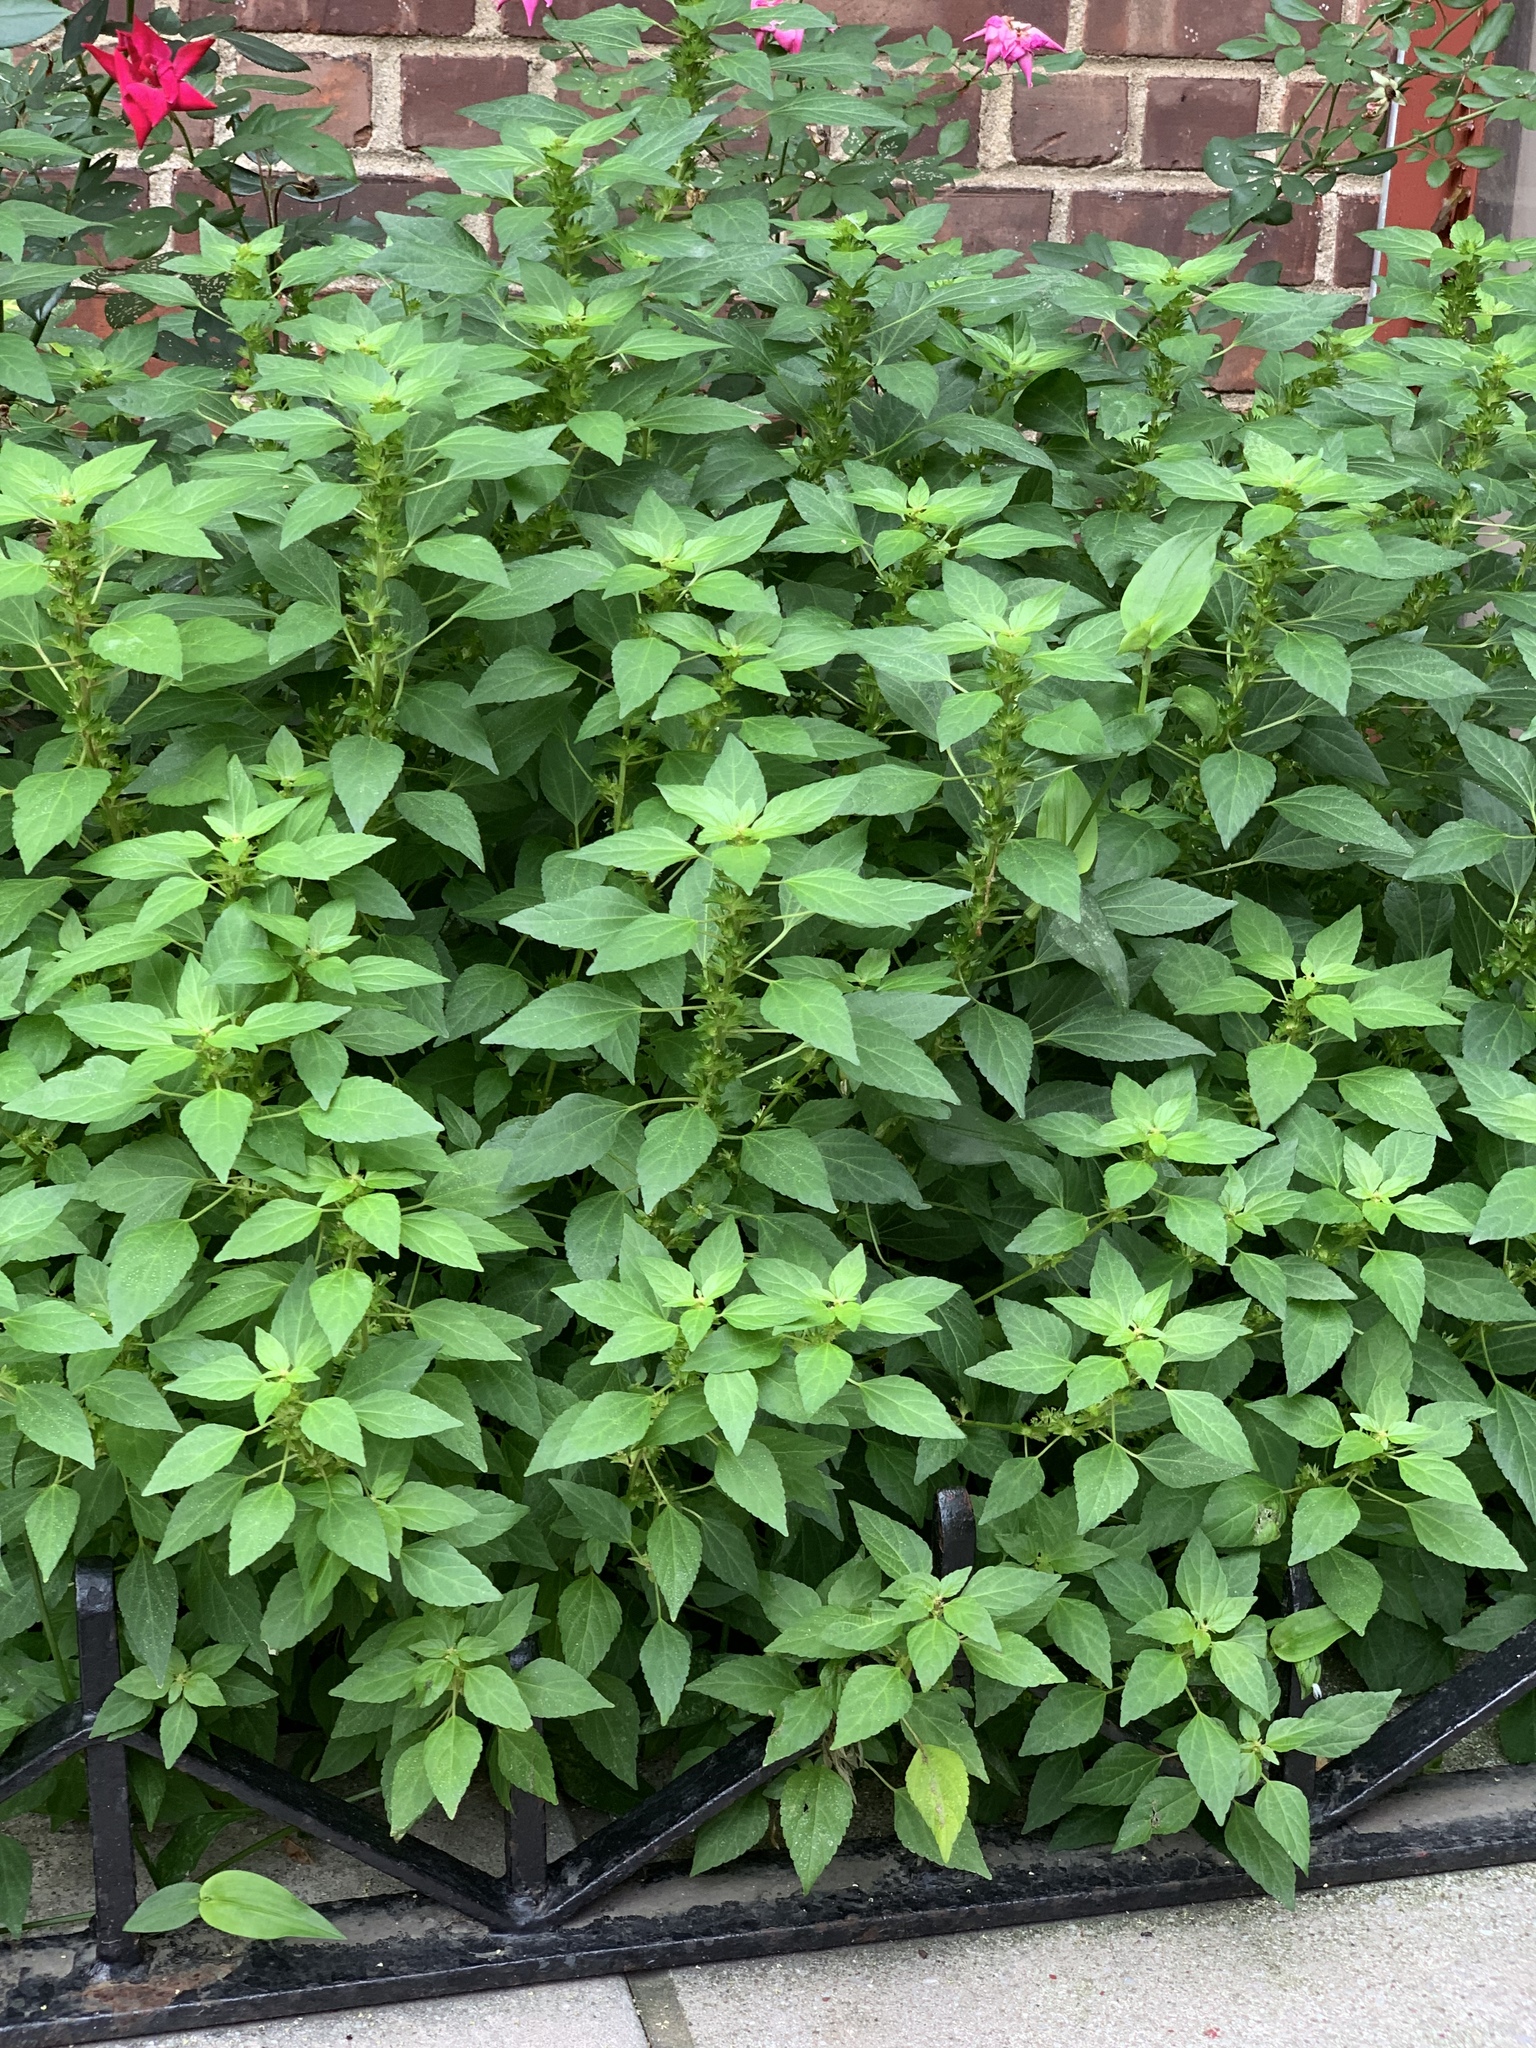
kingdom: Plantae
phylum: Tracheophyta
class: Magnoliopsida
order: Malpighiales
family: Euphorbiaceae
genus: Acalypha
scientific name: Acalypha rhomboidea
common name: Rhombic copperleaf
